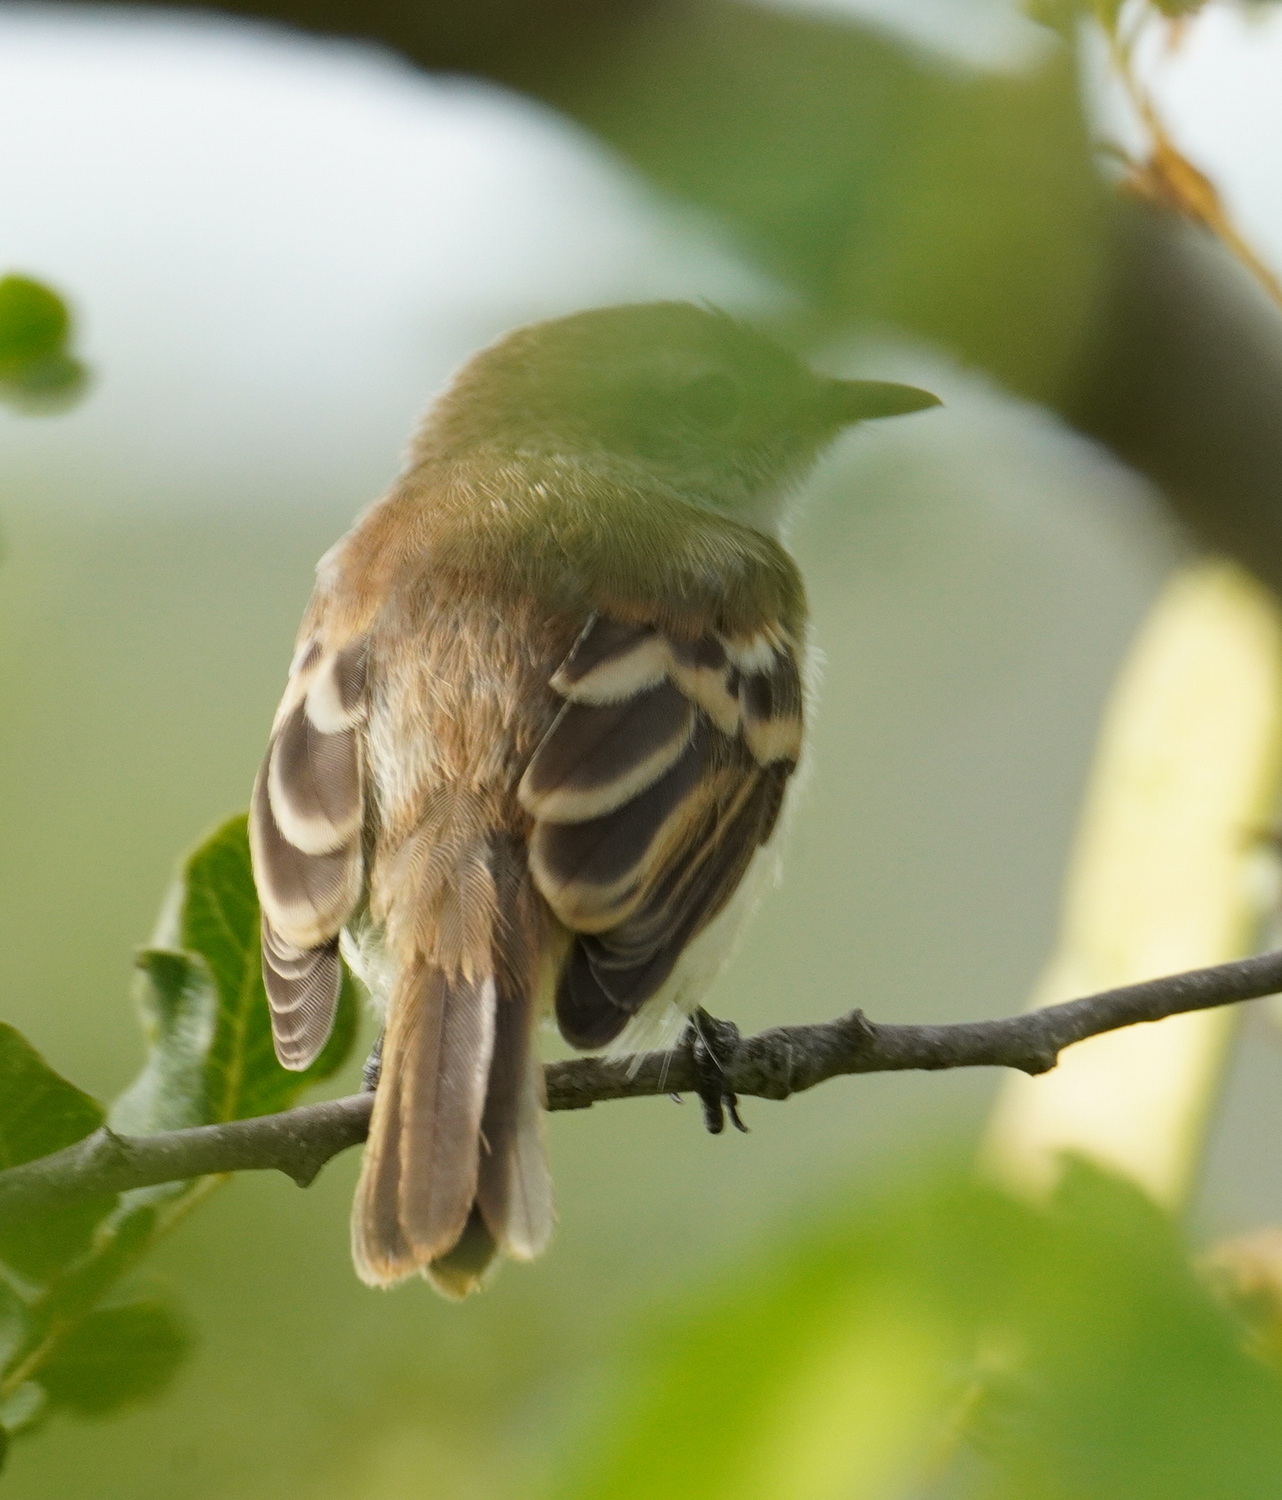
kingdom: Animalia
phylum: Chordata
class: Aves
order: Passeriformes
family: Tyrannidae
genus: Cnemotriccus
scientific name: Cnemotriccus fuscatus
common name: Fuscous flycatcher
